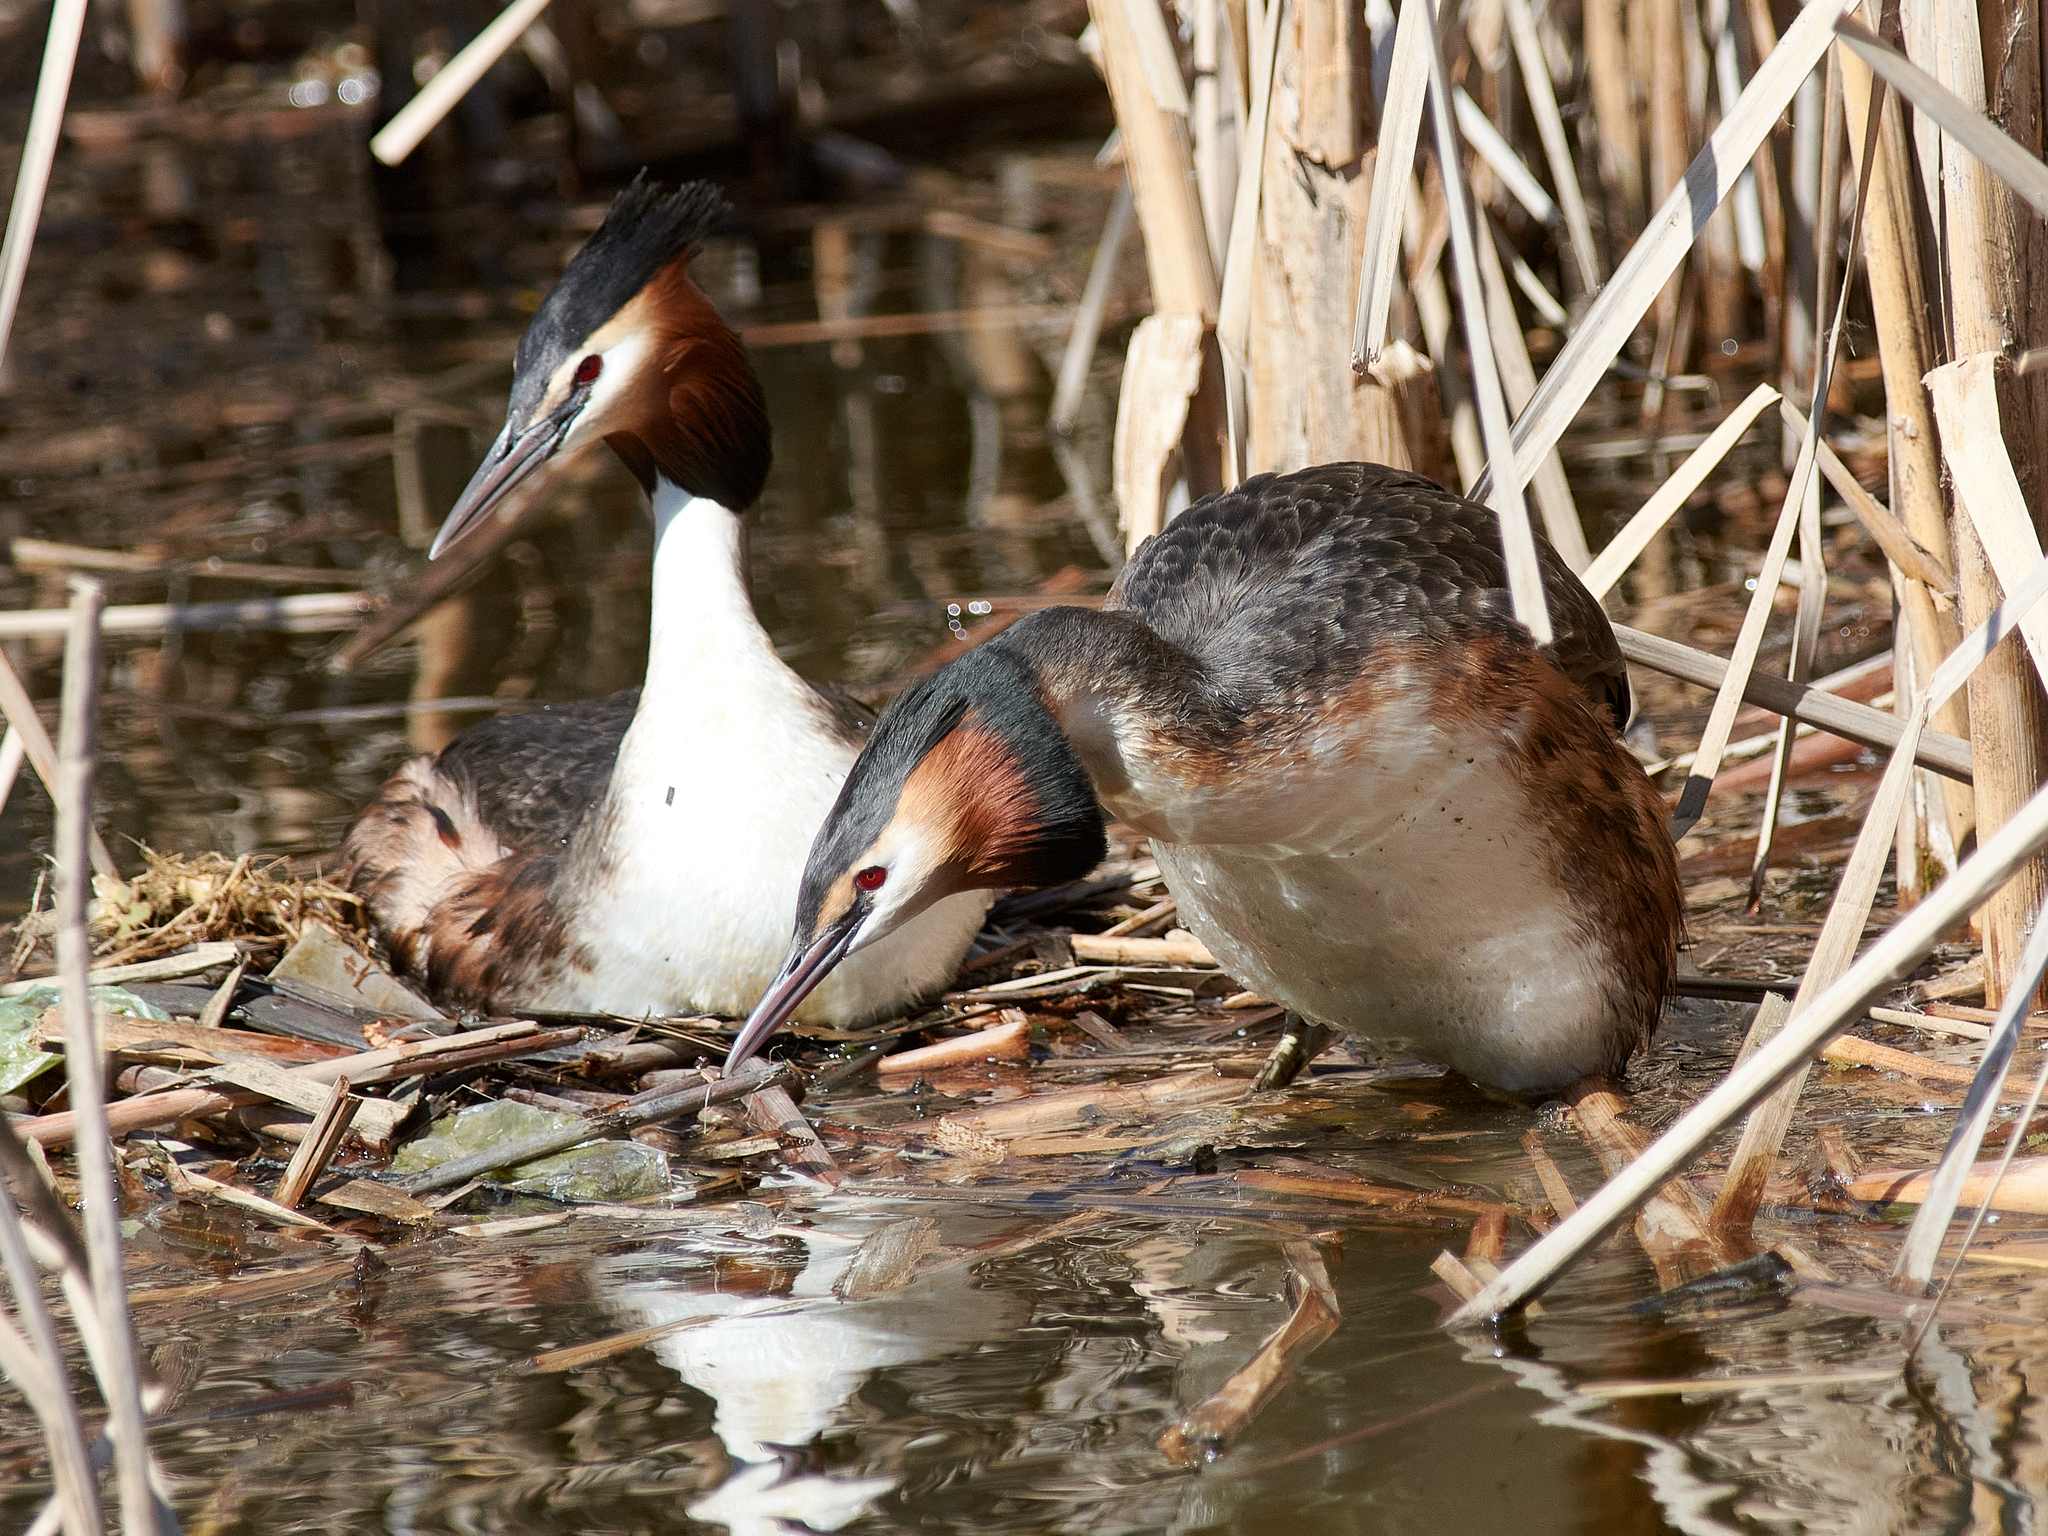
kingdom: Animalia
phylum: Chordata
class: Aves
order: Podicipediformes
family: Podicipedidae
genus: Podiceps
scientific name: Podiceps cristatus
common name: Great crested grebe
